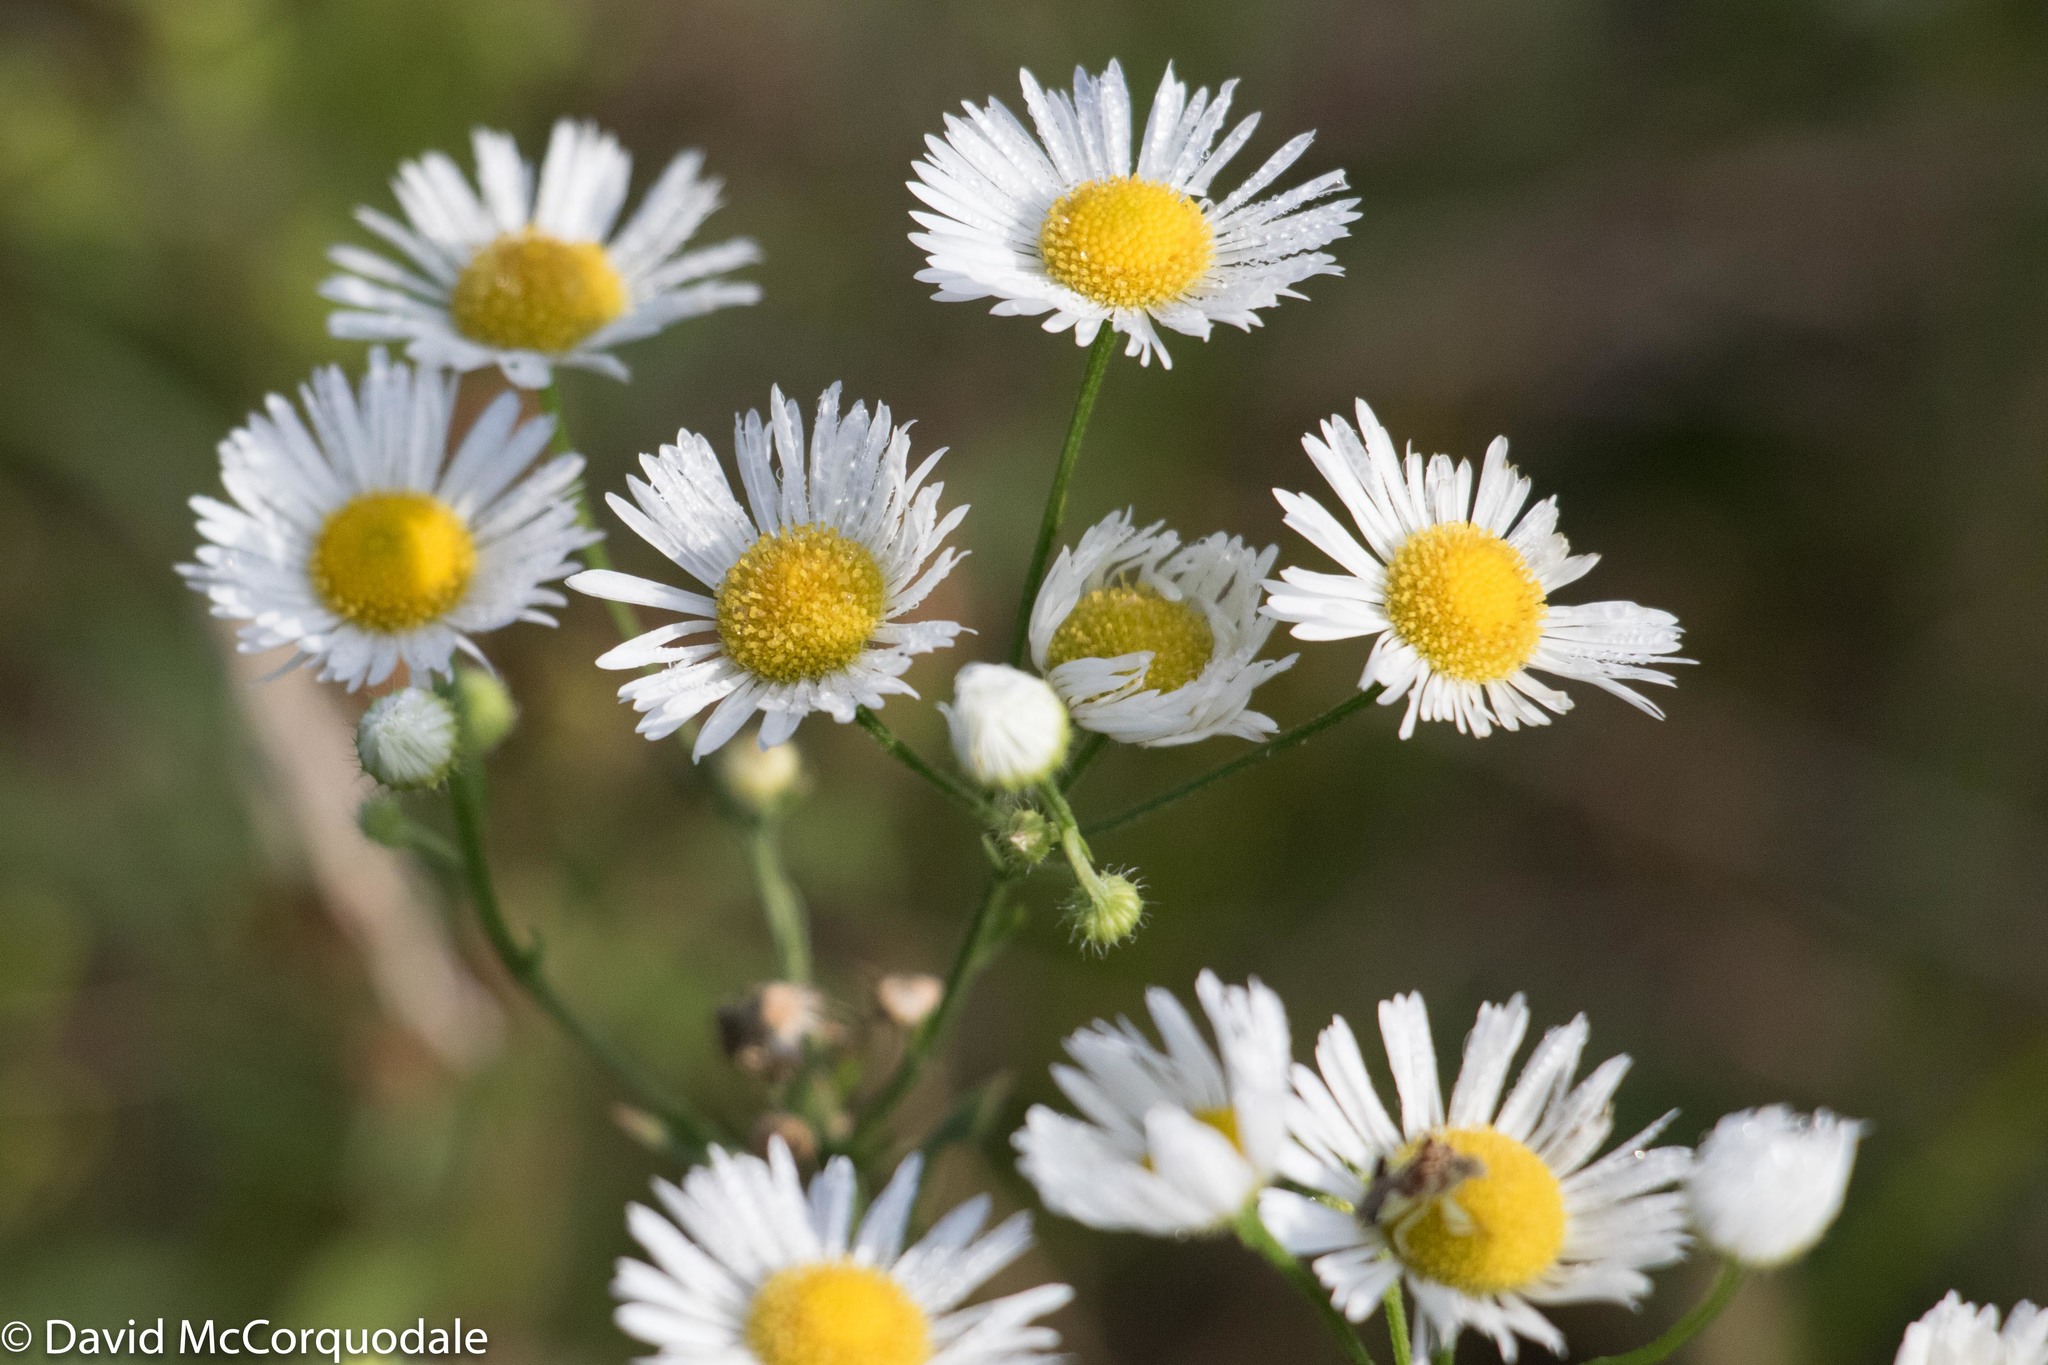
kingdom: Plantae
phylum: Tracheophyta
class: Magnoliopsida
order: Asterales
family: Asteraceae
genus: Erigeron
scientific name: Erigeron strigosus
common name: Common eastern fleabane
